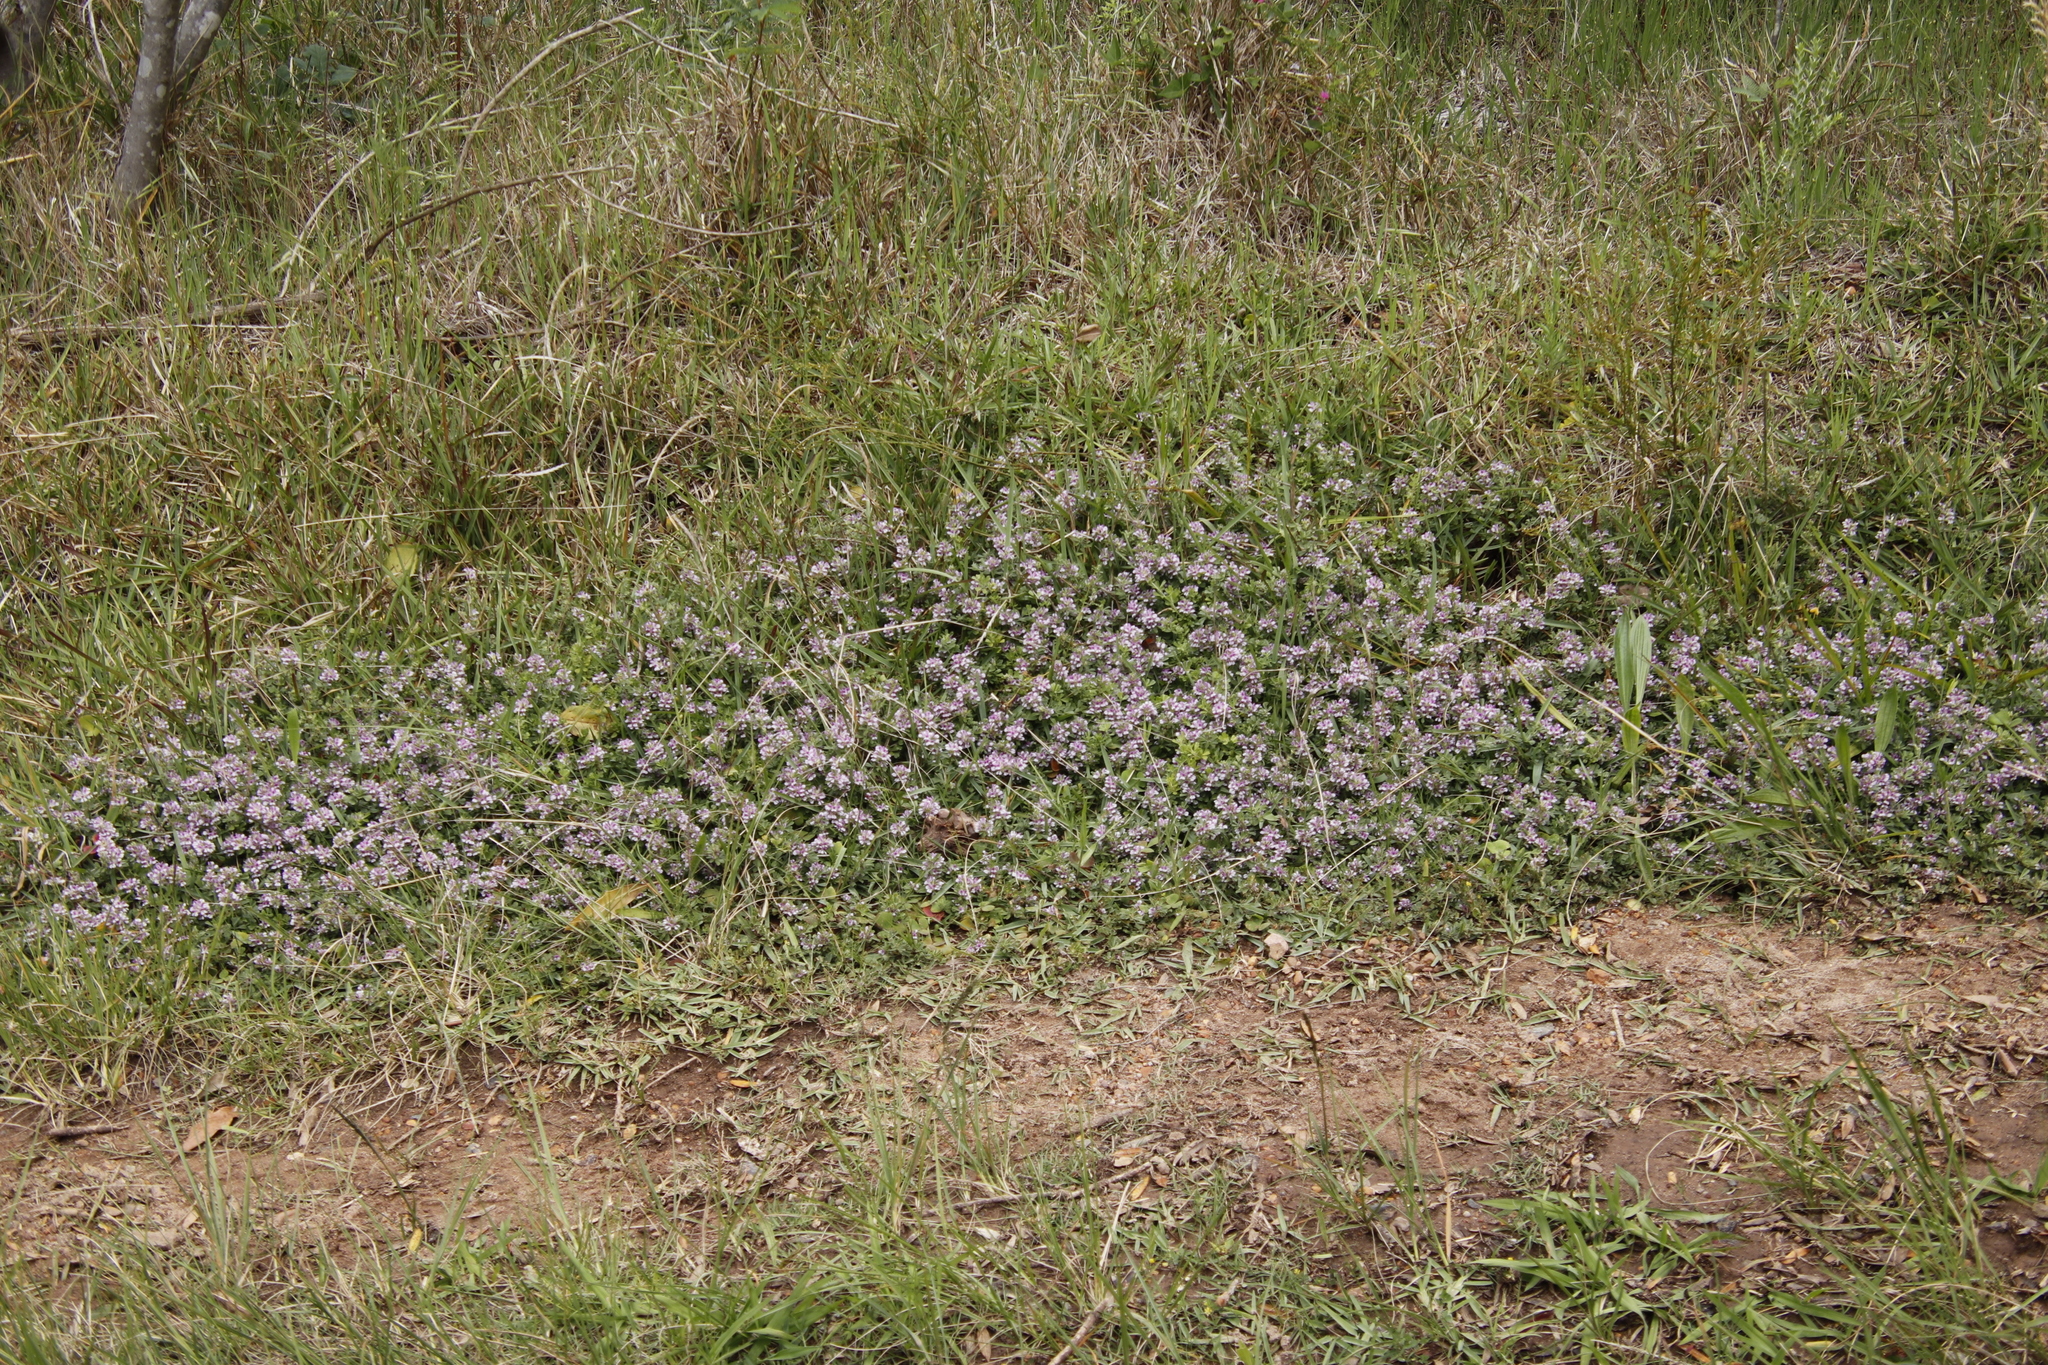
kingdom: Plantae
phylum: Tracheophyta
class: Magnoliopsida
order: Fabales
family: Fabaceae
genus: Psoralea
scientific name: Psoralea
